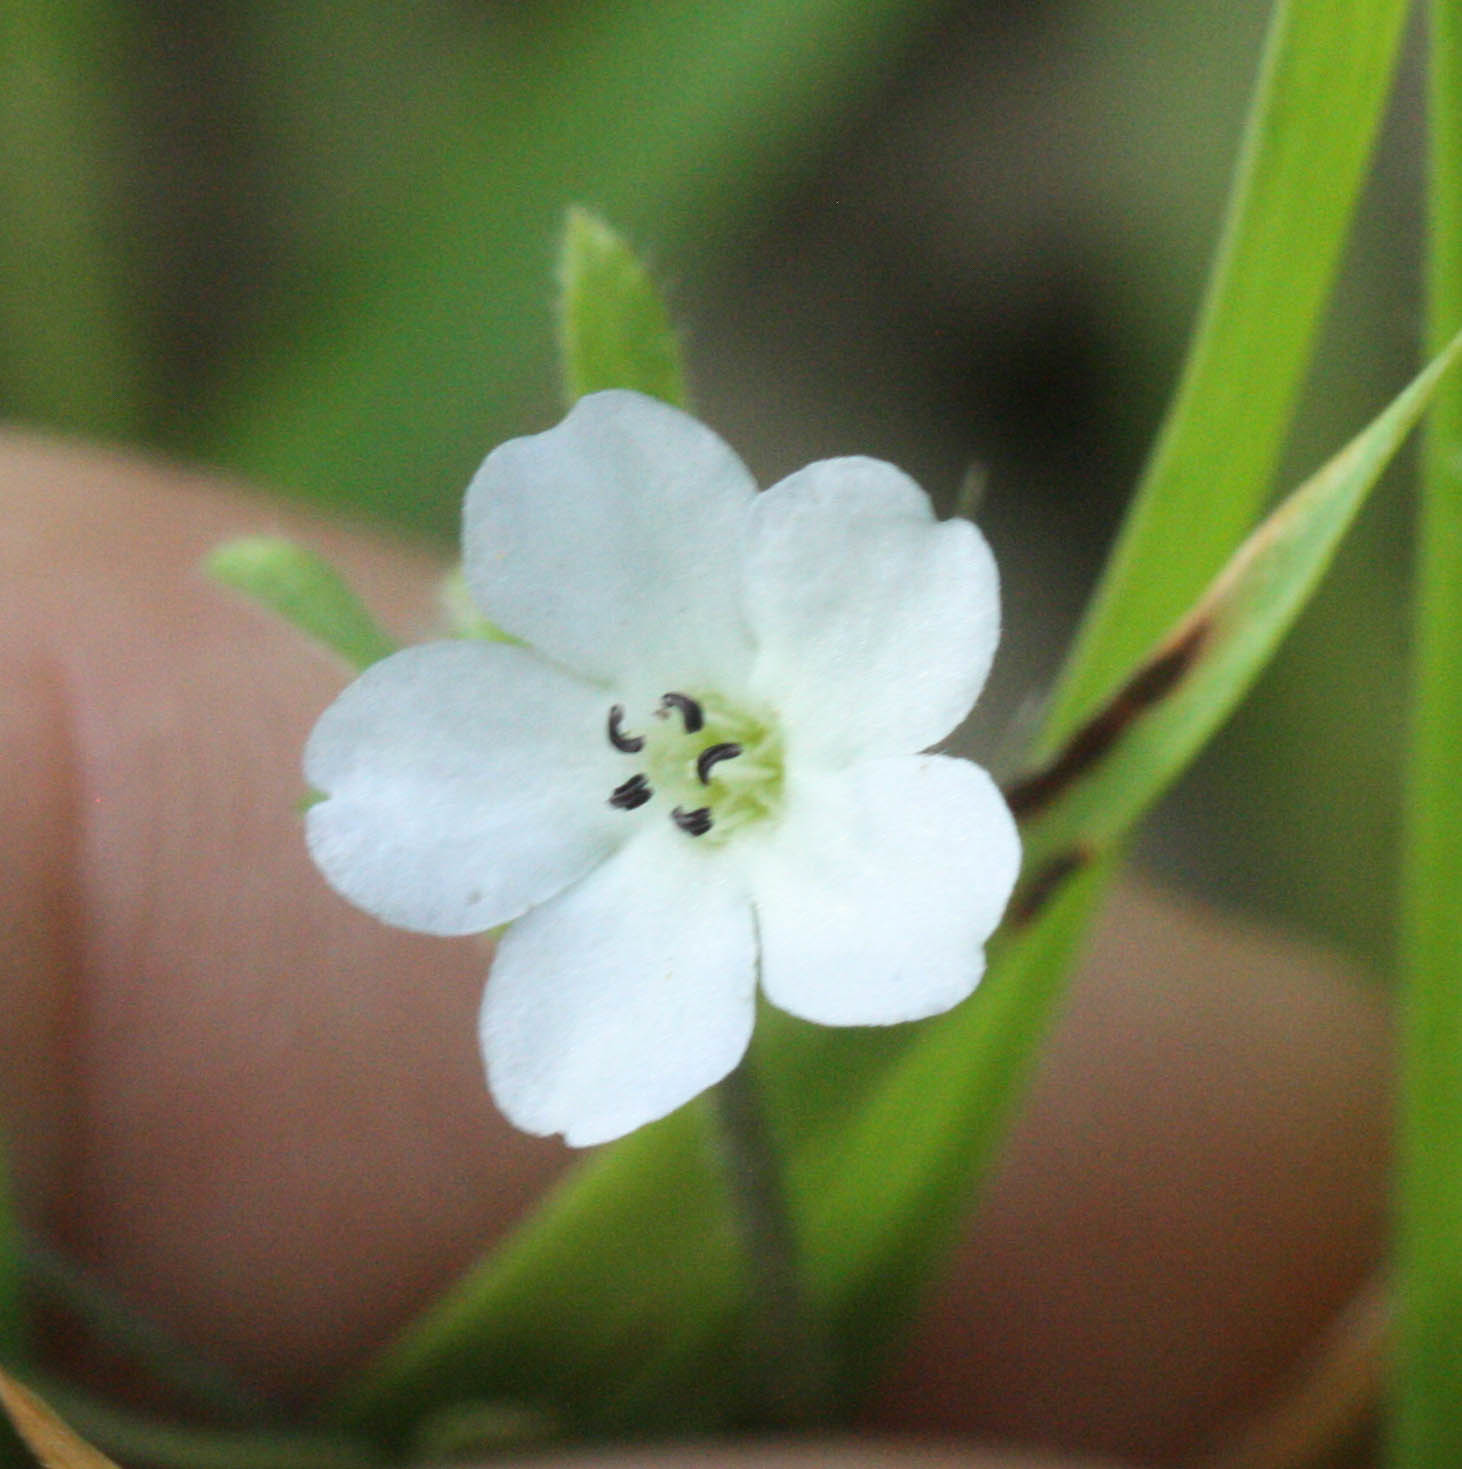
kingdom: Plantae
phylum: Tracheophyta
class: Magnoliopsida
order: Boraginales
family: Hydrophyllaceae
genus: Nemophila
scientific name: Nemophila heterophylla
